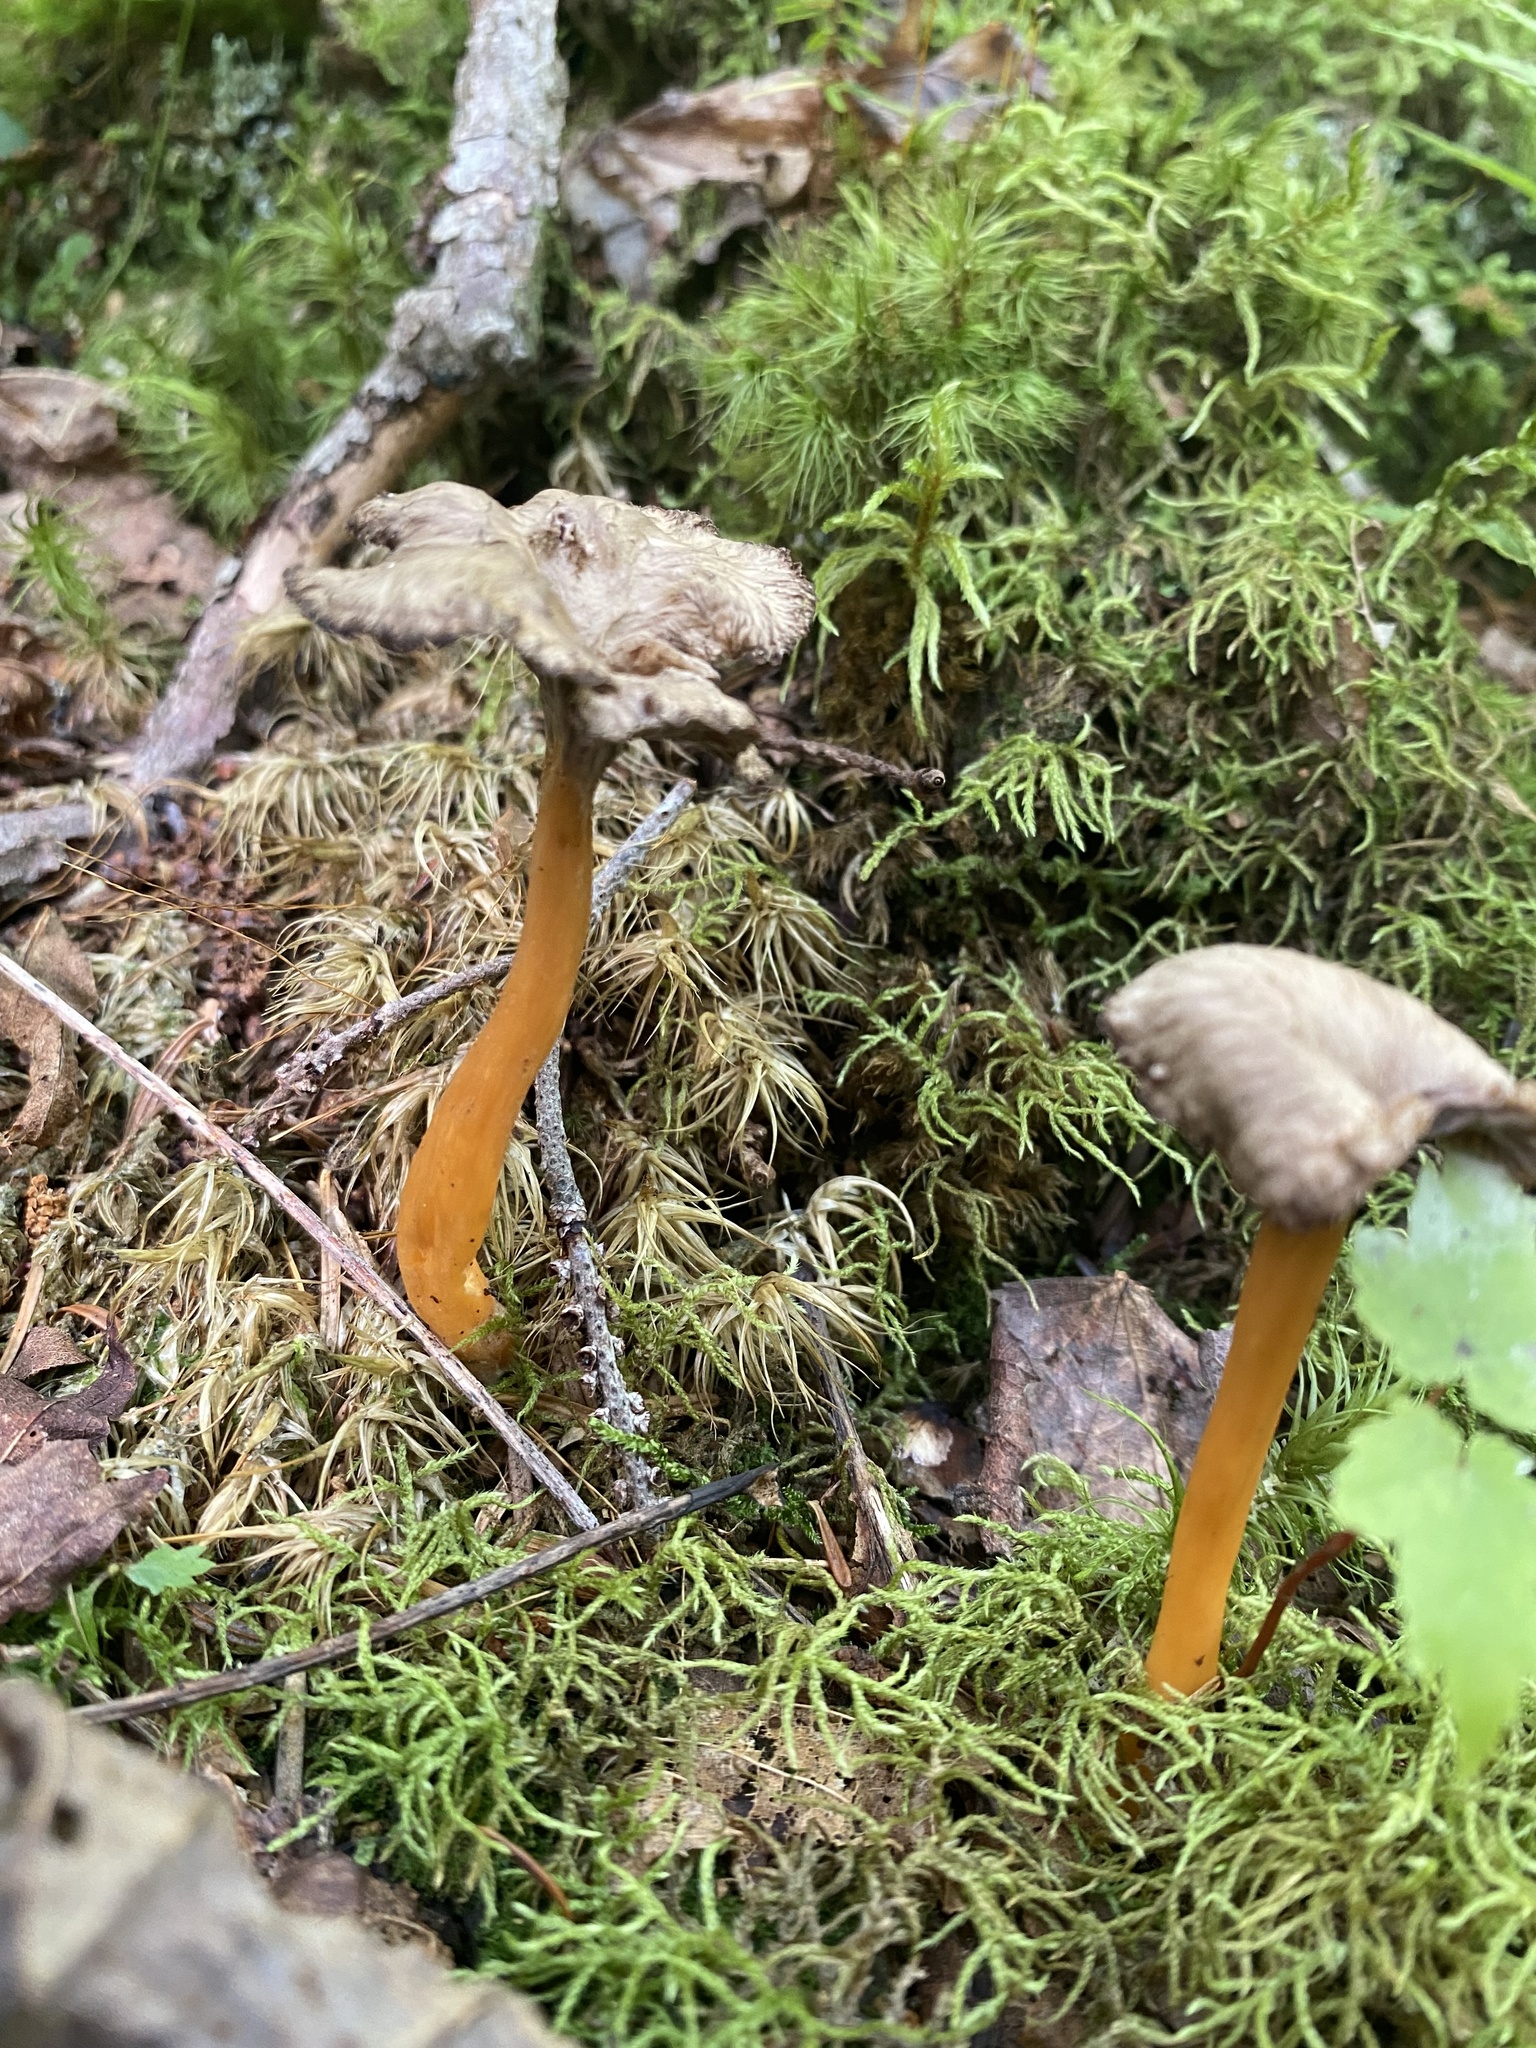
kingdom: Fungi
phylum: Basidiomycota
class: Agaricomycetes
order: Cantharellales
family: Hydnaceae
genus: Craterellus
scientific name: Craterellus tubaeformis
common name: Yellowfoot
